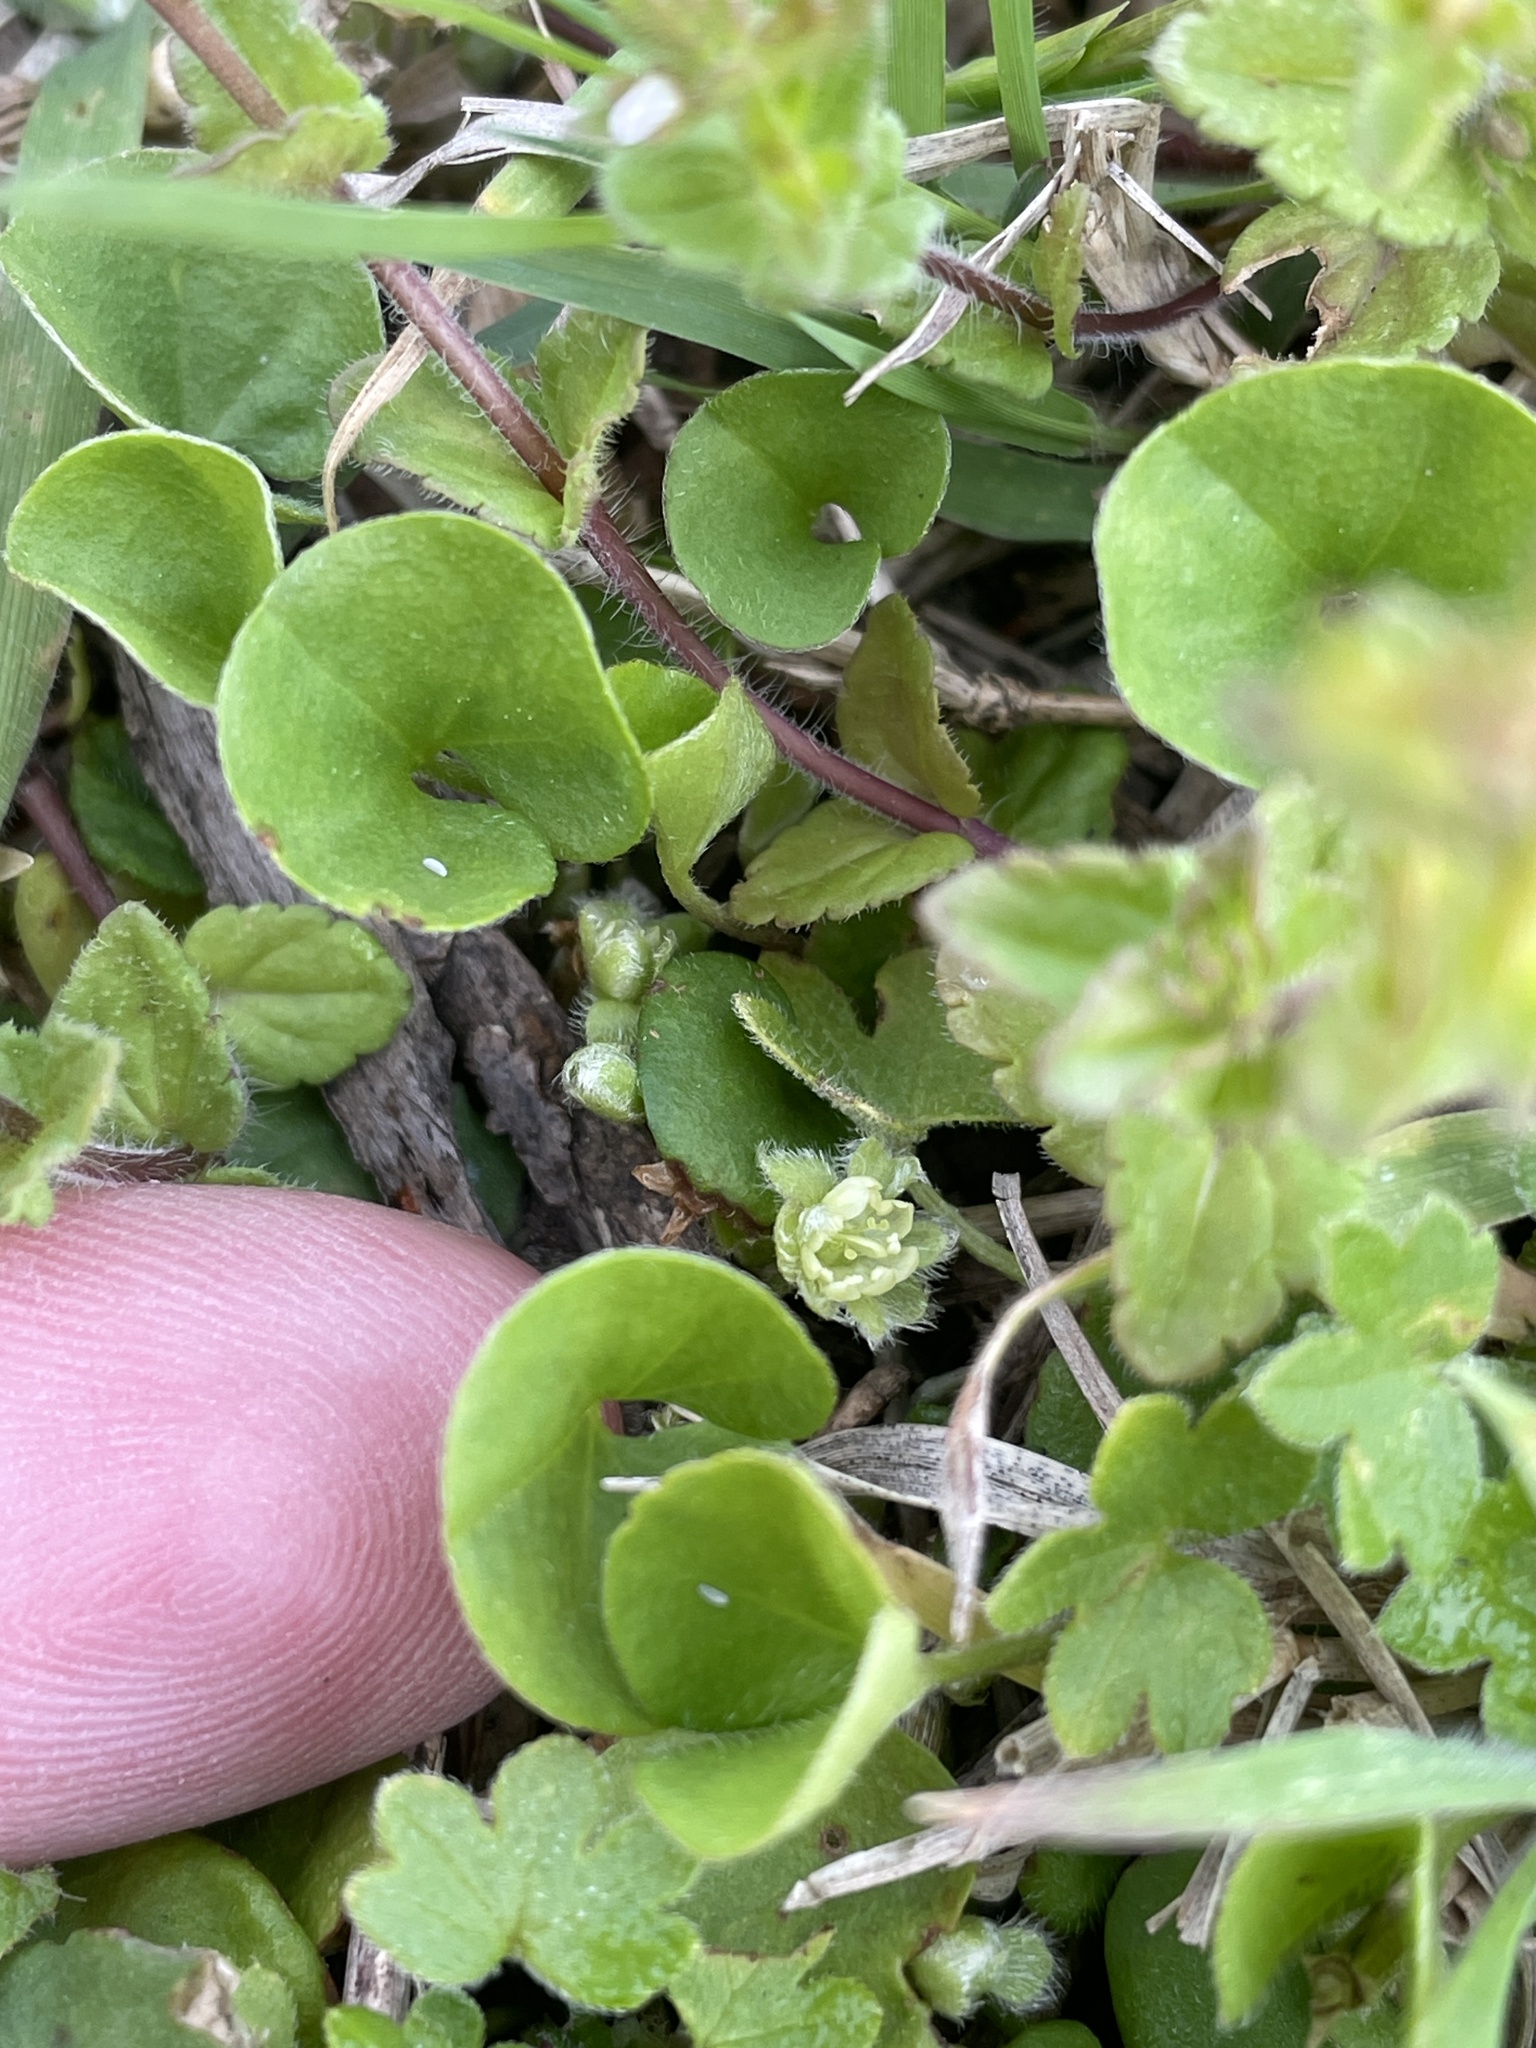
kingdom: Plantae
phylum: Tracheophyta
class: Magnoliopsida
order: Solanales
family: Convolvulaceae
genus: Dichondra
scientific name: Dichondra carolinensis
